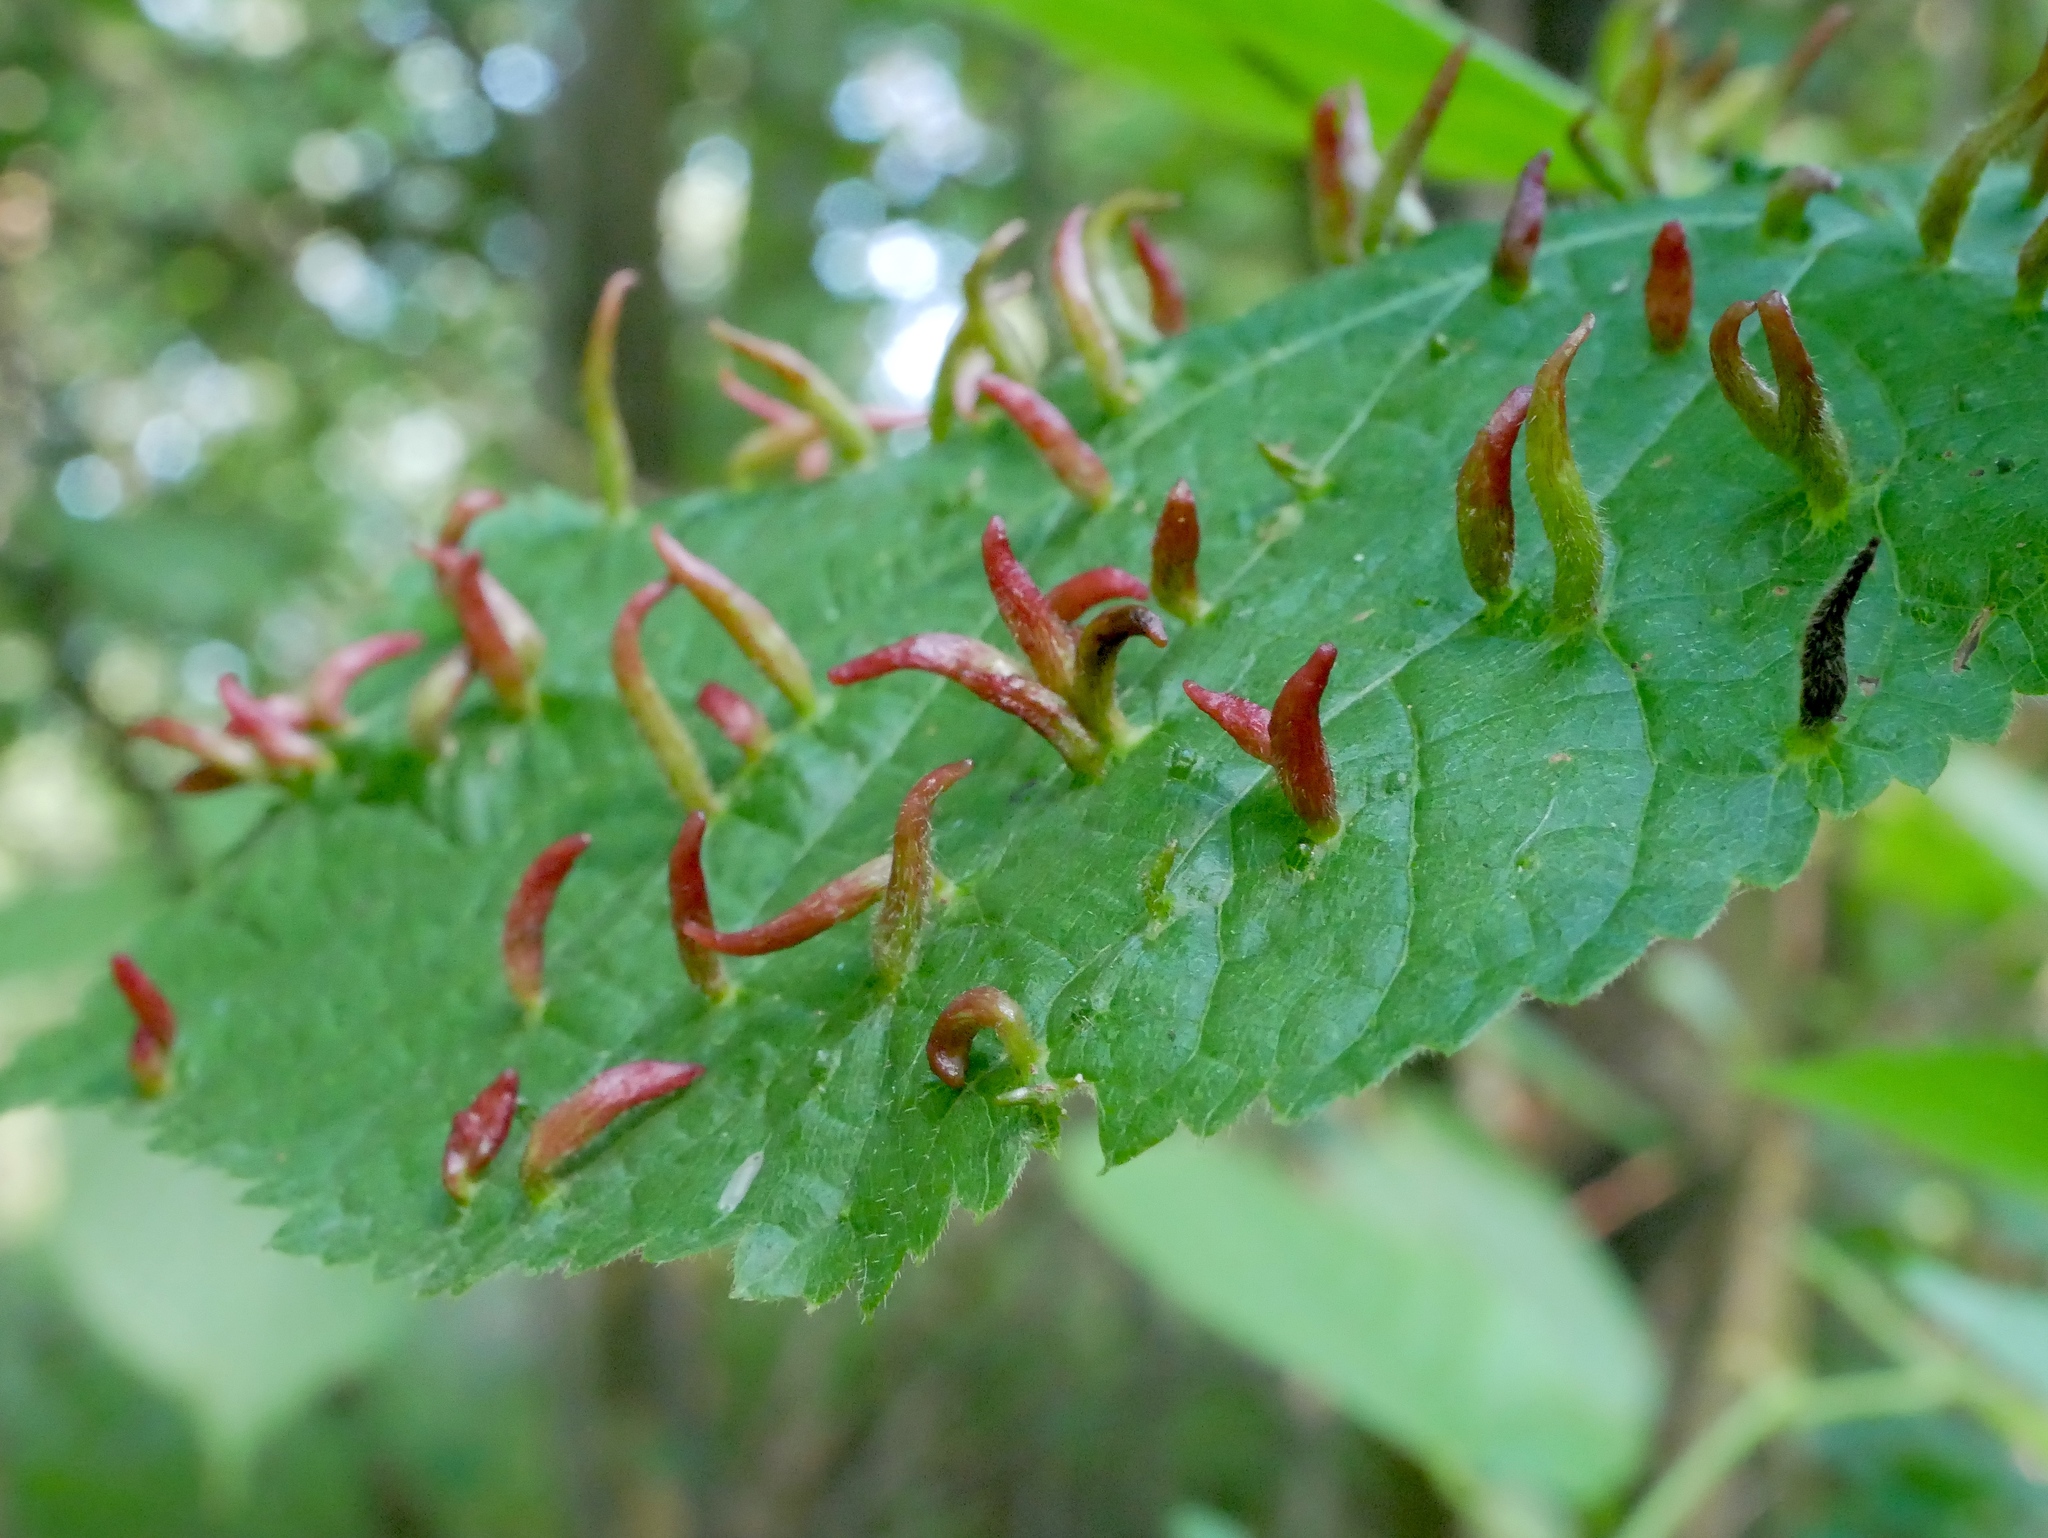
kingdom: Animalia
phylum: Arthropoda
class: Arachnida
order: Trombidiformes
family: Eriophyidae
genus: Eriophyes
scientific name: Eriophyes tiliae
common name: Red nail gall mite
